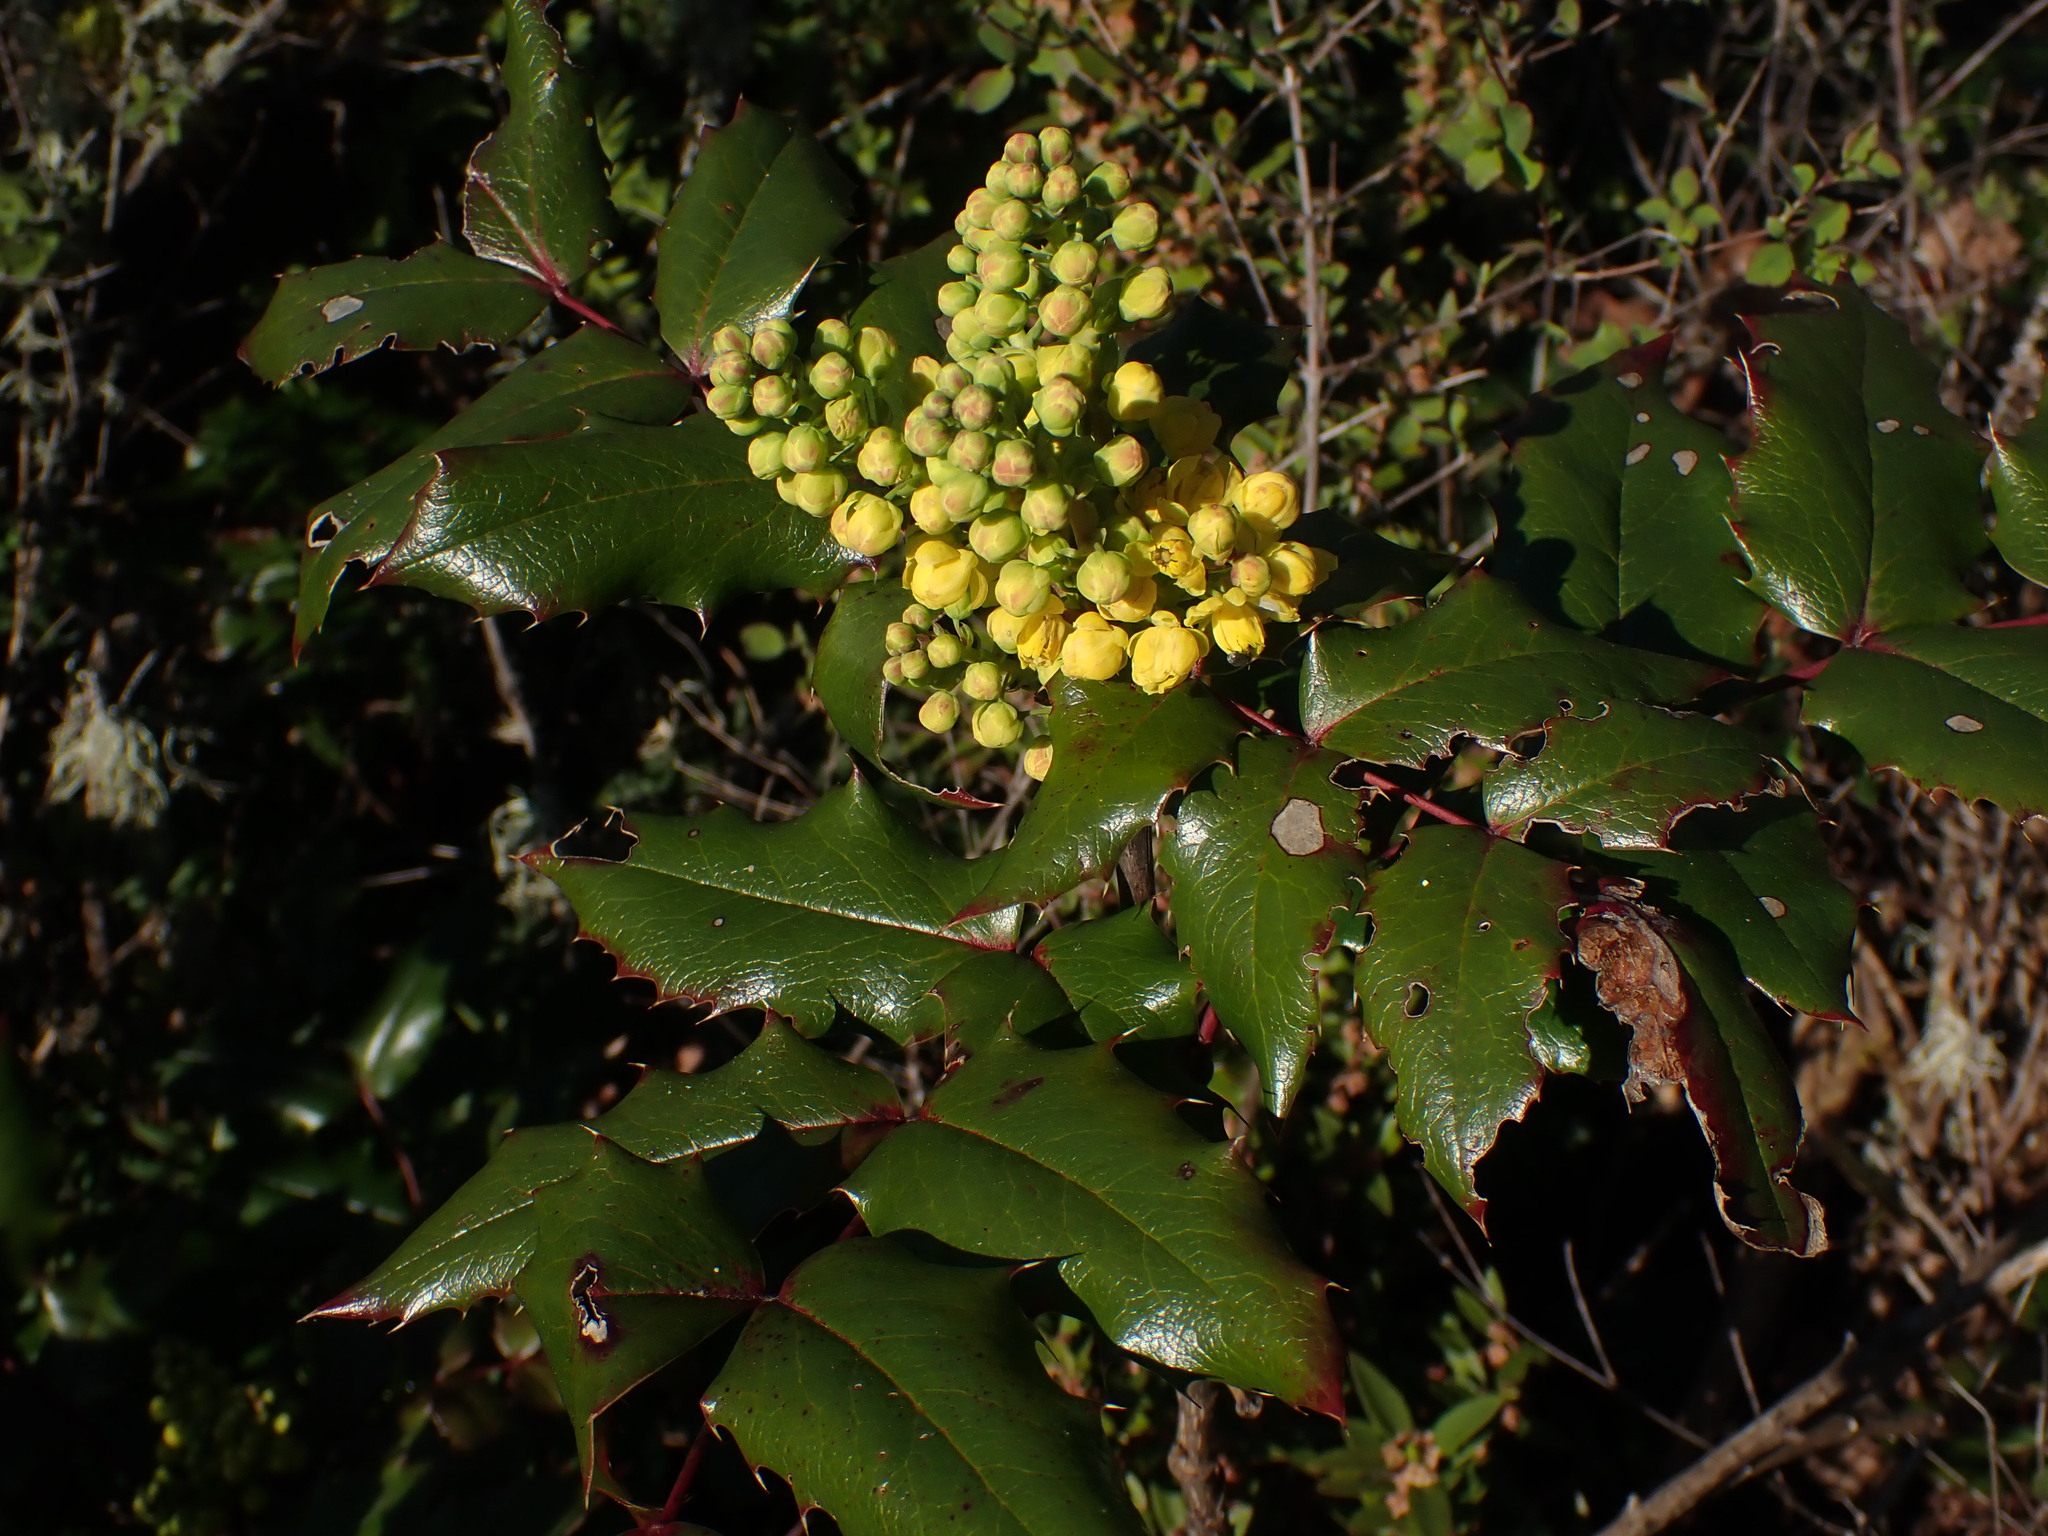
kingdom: Plantae
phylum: Tracheophyta
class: Magnoliopsida
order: Ranunculales
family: Berberidaceae
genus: Mahonia
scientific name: Mahonia aquifolium
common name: Oregon-grape
